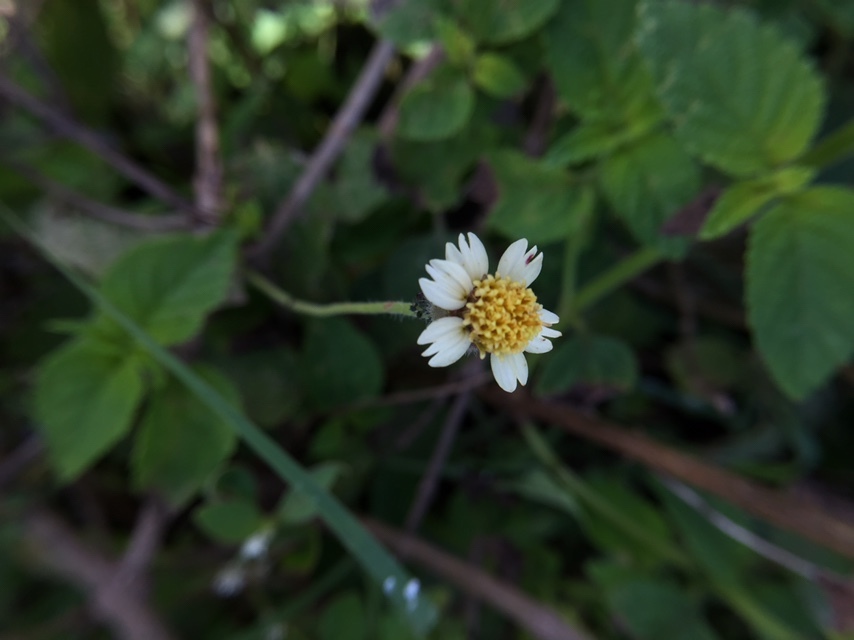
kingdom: Plantae
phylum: Tracheophyta
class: Magnoliopsida
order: Asterales
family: Asteraceae
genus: Tridax
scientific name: Tridax procumbens
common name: Coatbuttons
